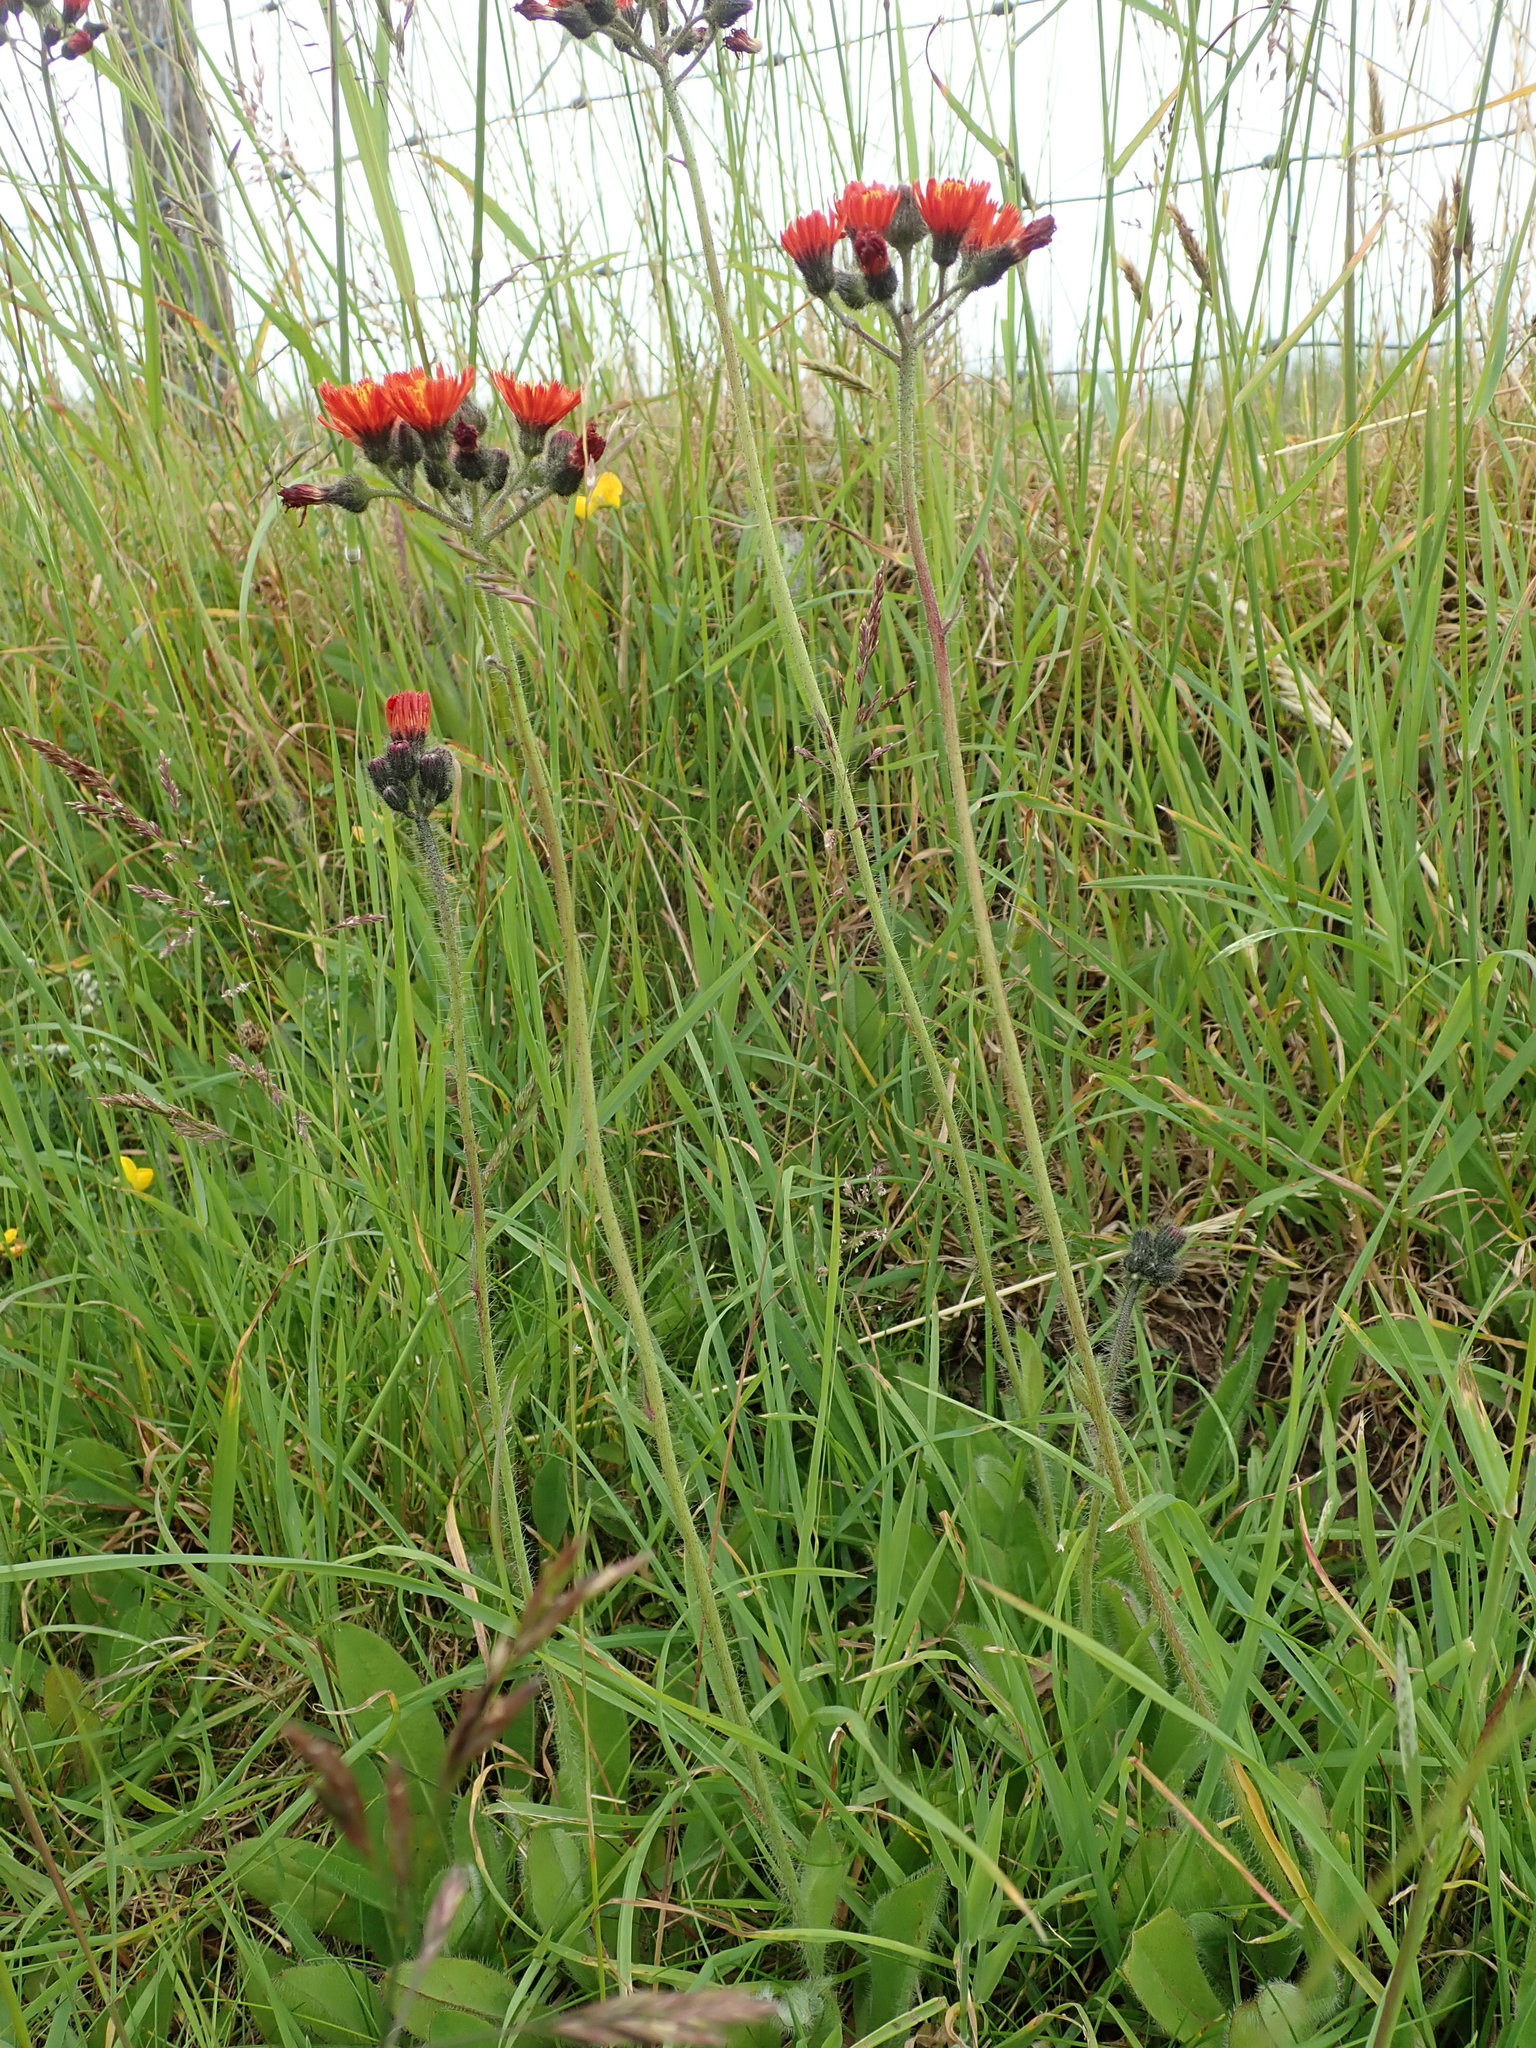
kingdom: Plantae
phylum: Tracheophyta
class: Magnoliopsida
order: Asterales
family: Asteraceae
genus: Pilosella
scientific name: Pilosella aurantiaca
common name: Fox-and-cubs
